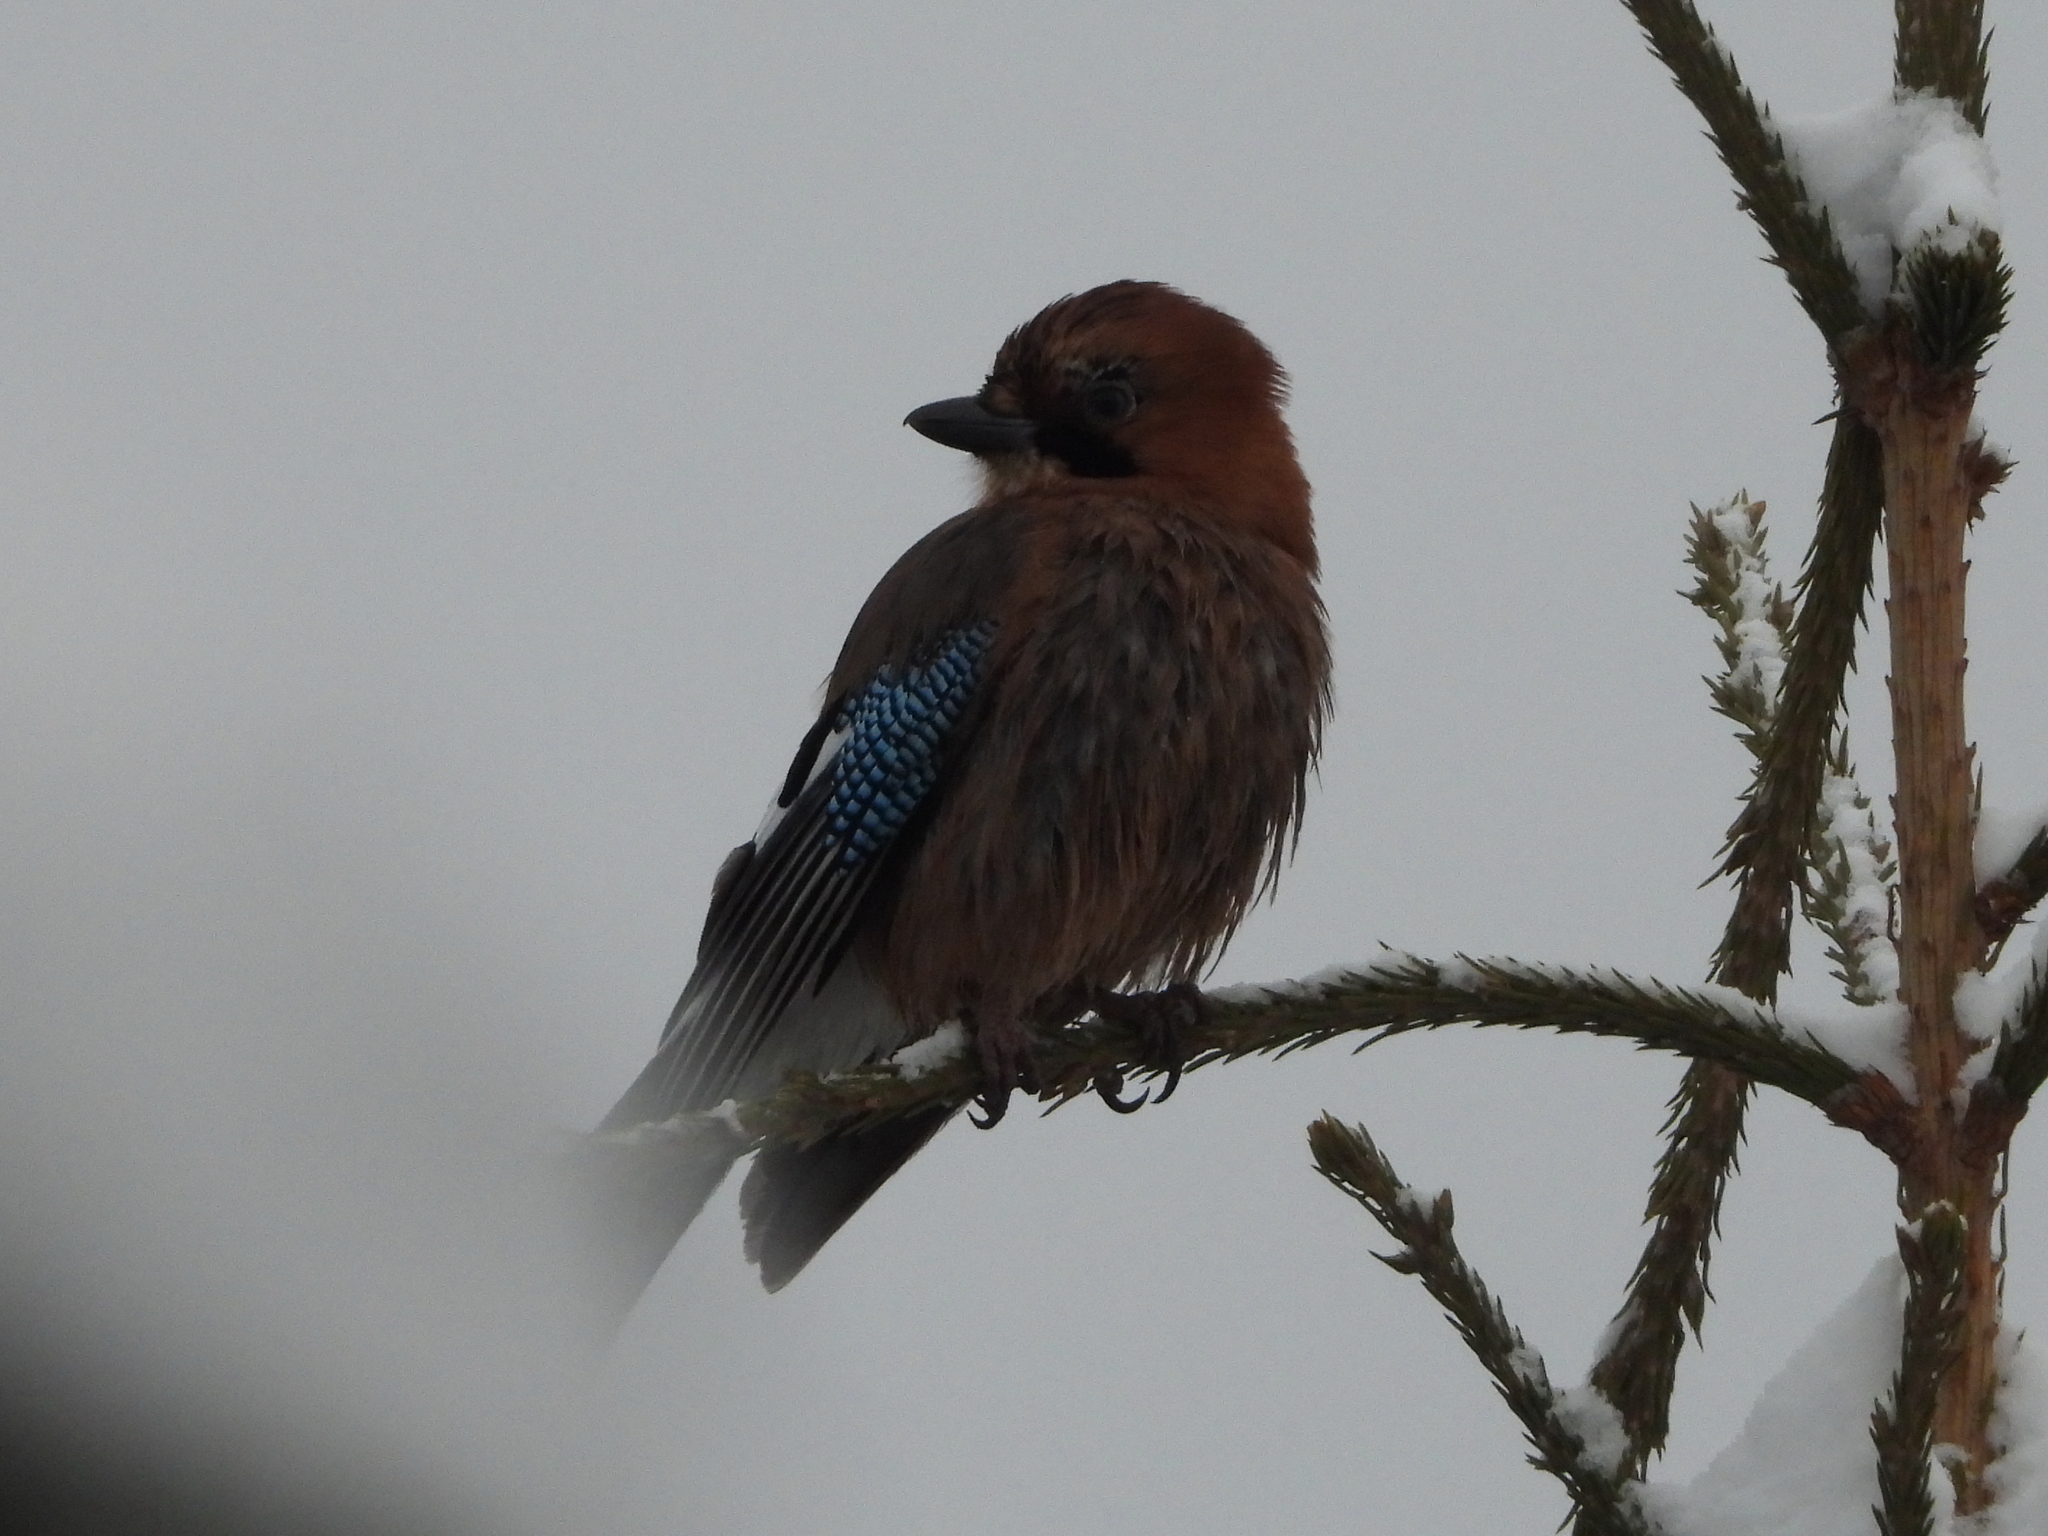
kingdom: Animalia
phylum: Chordata
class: Aves
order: Passeriformes
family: Corvidae
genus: Garrulus
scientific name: Garrulus glandarius
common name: Eurasian jay
